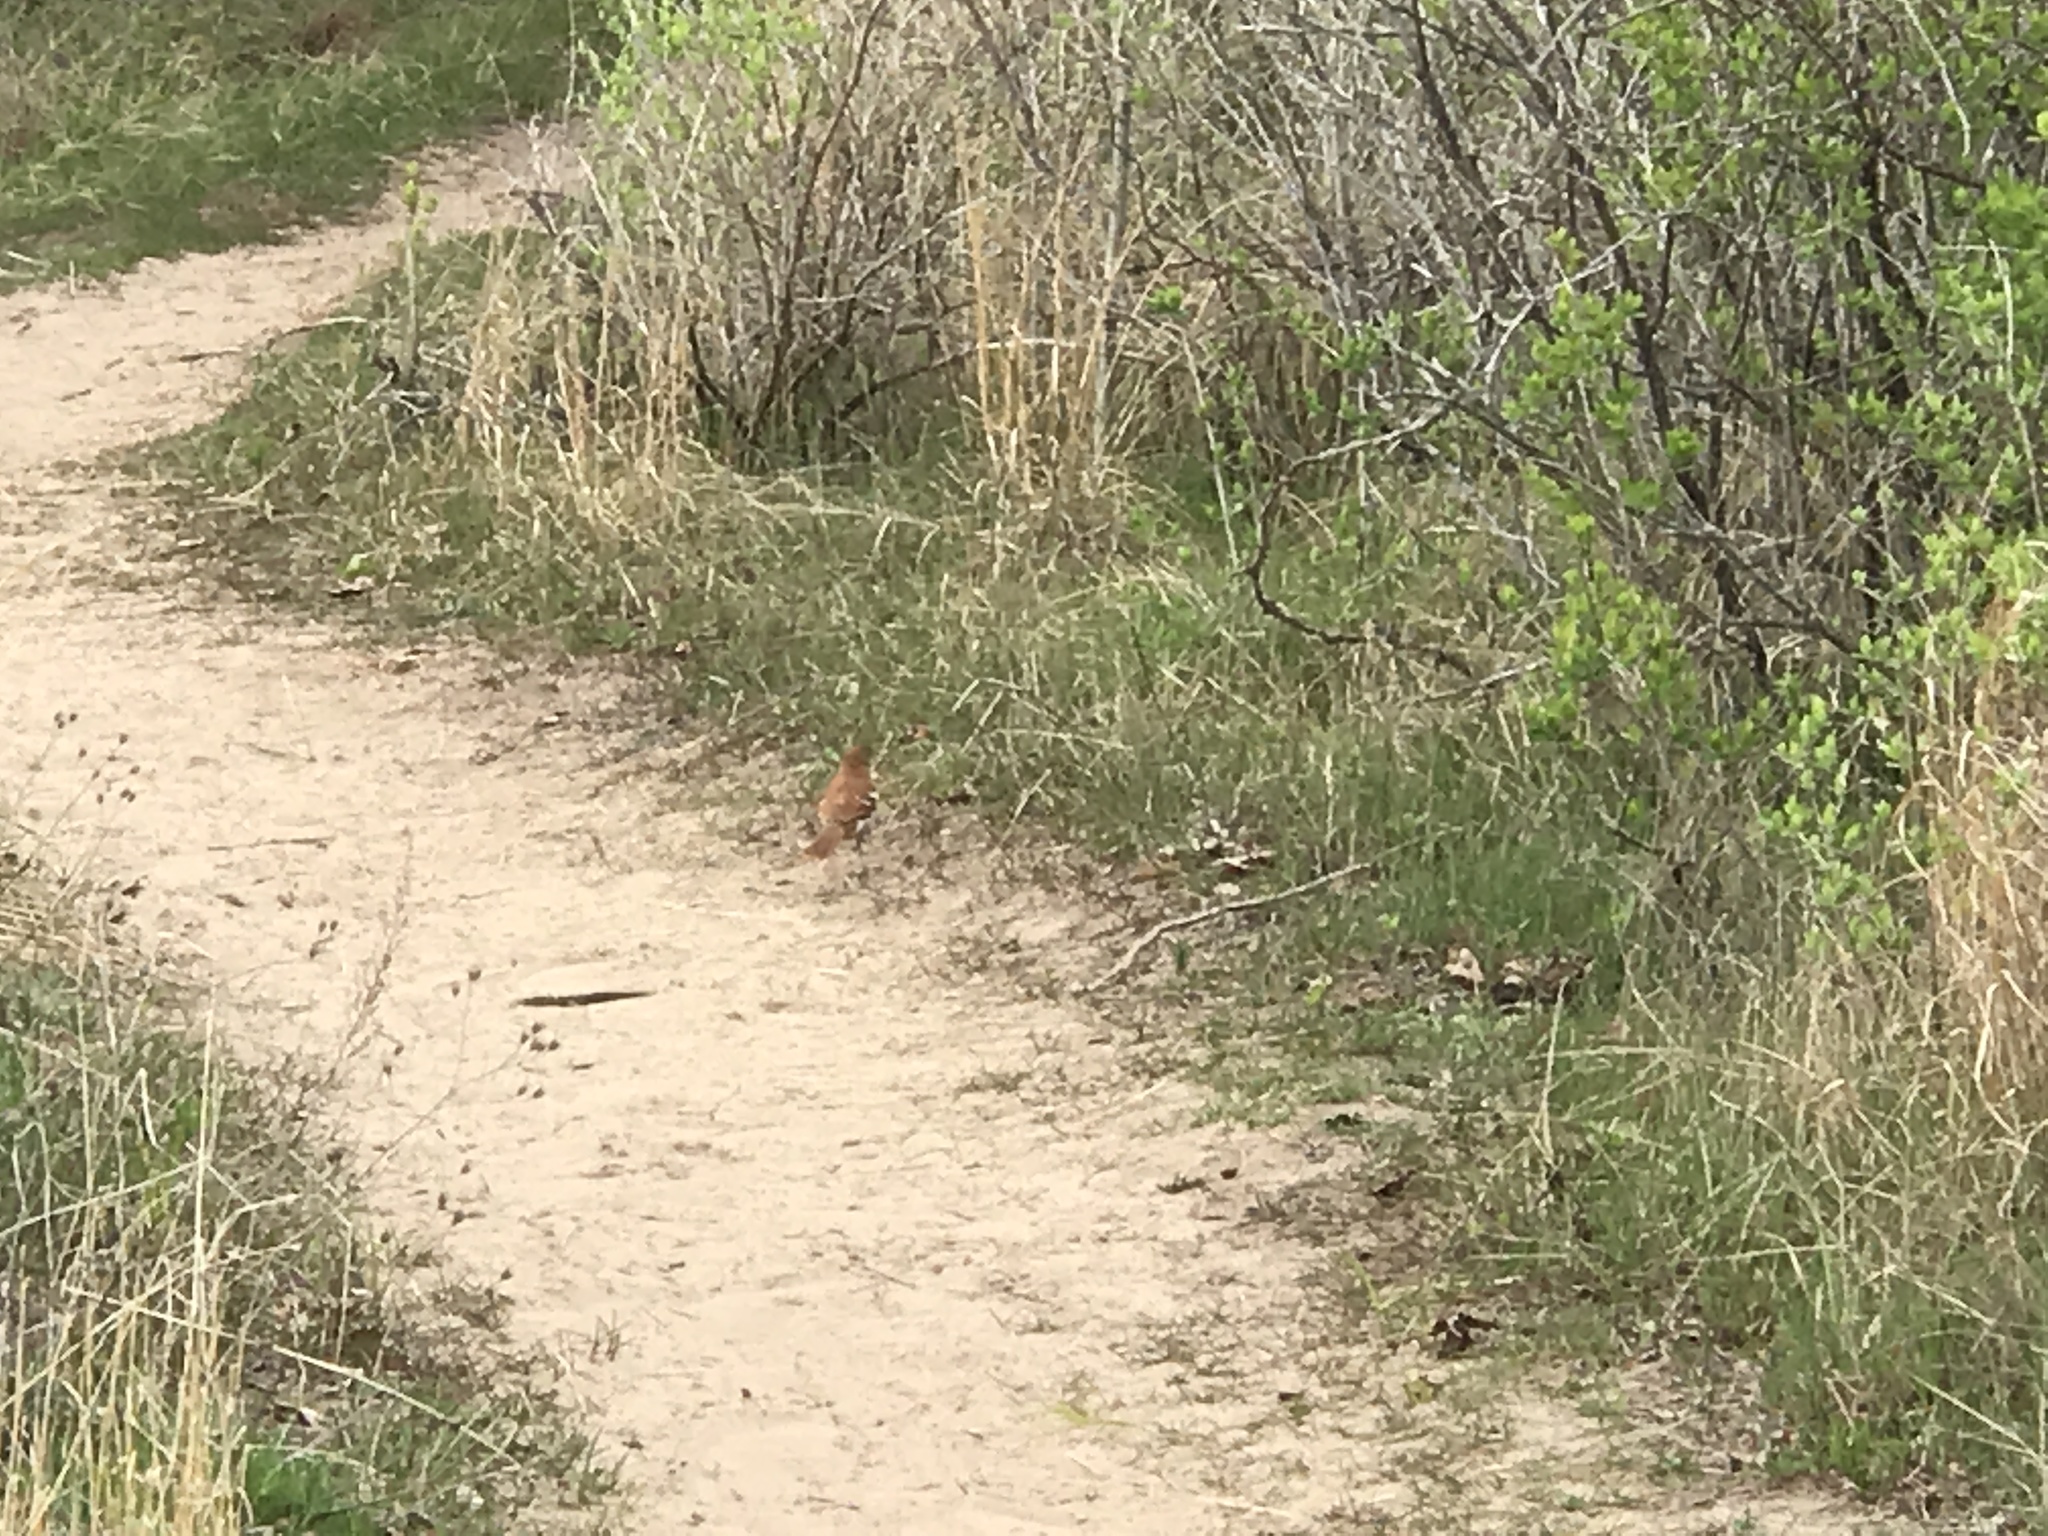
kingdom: Animalia
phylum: Chordata
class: Aves
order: Passeriformes
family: Mimidae
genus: Toxostoma
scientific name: Toxostoma rufum
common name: Brown thrasher
